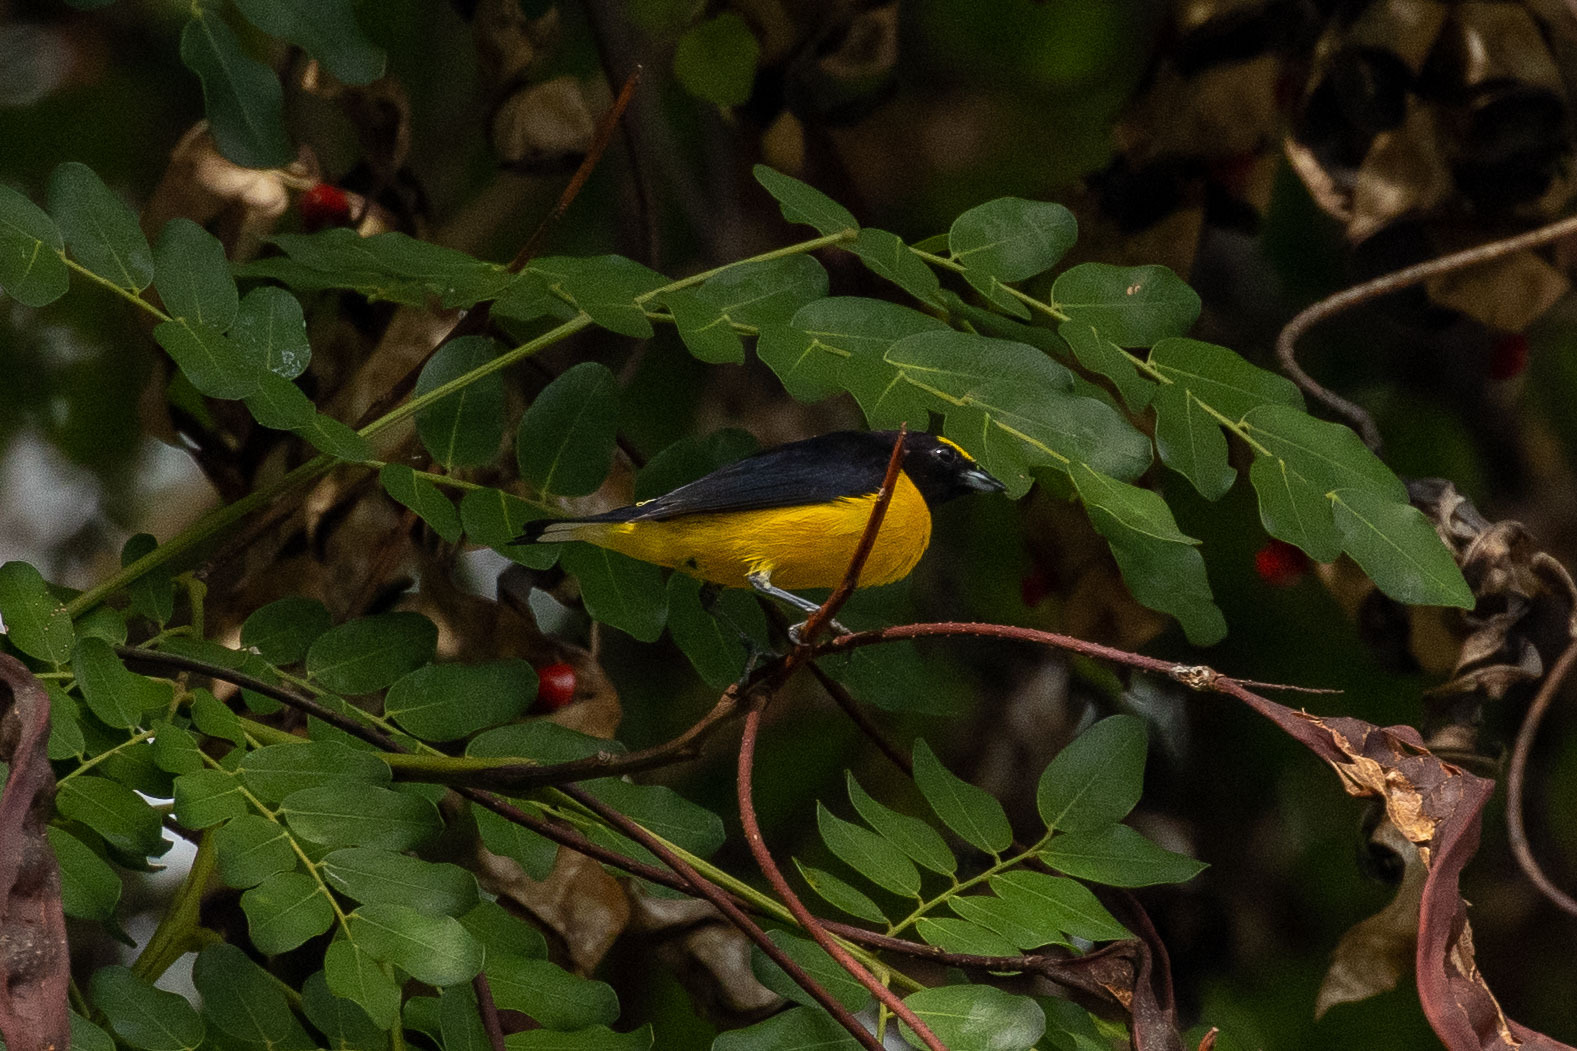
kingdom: Animalia
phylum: Chordata
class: Aves
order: Passeriformes
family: Fringillidae
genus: Euphonia
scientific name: Euphonia chlorotica
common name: Purple-throated euphonia
